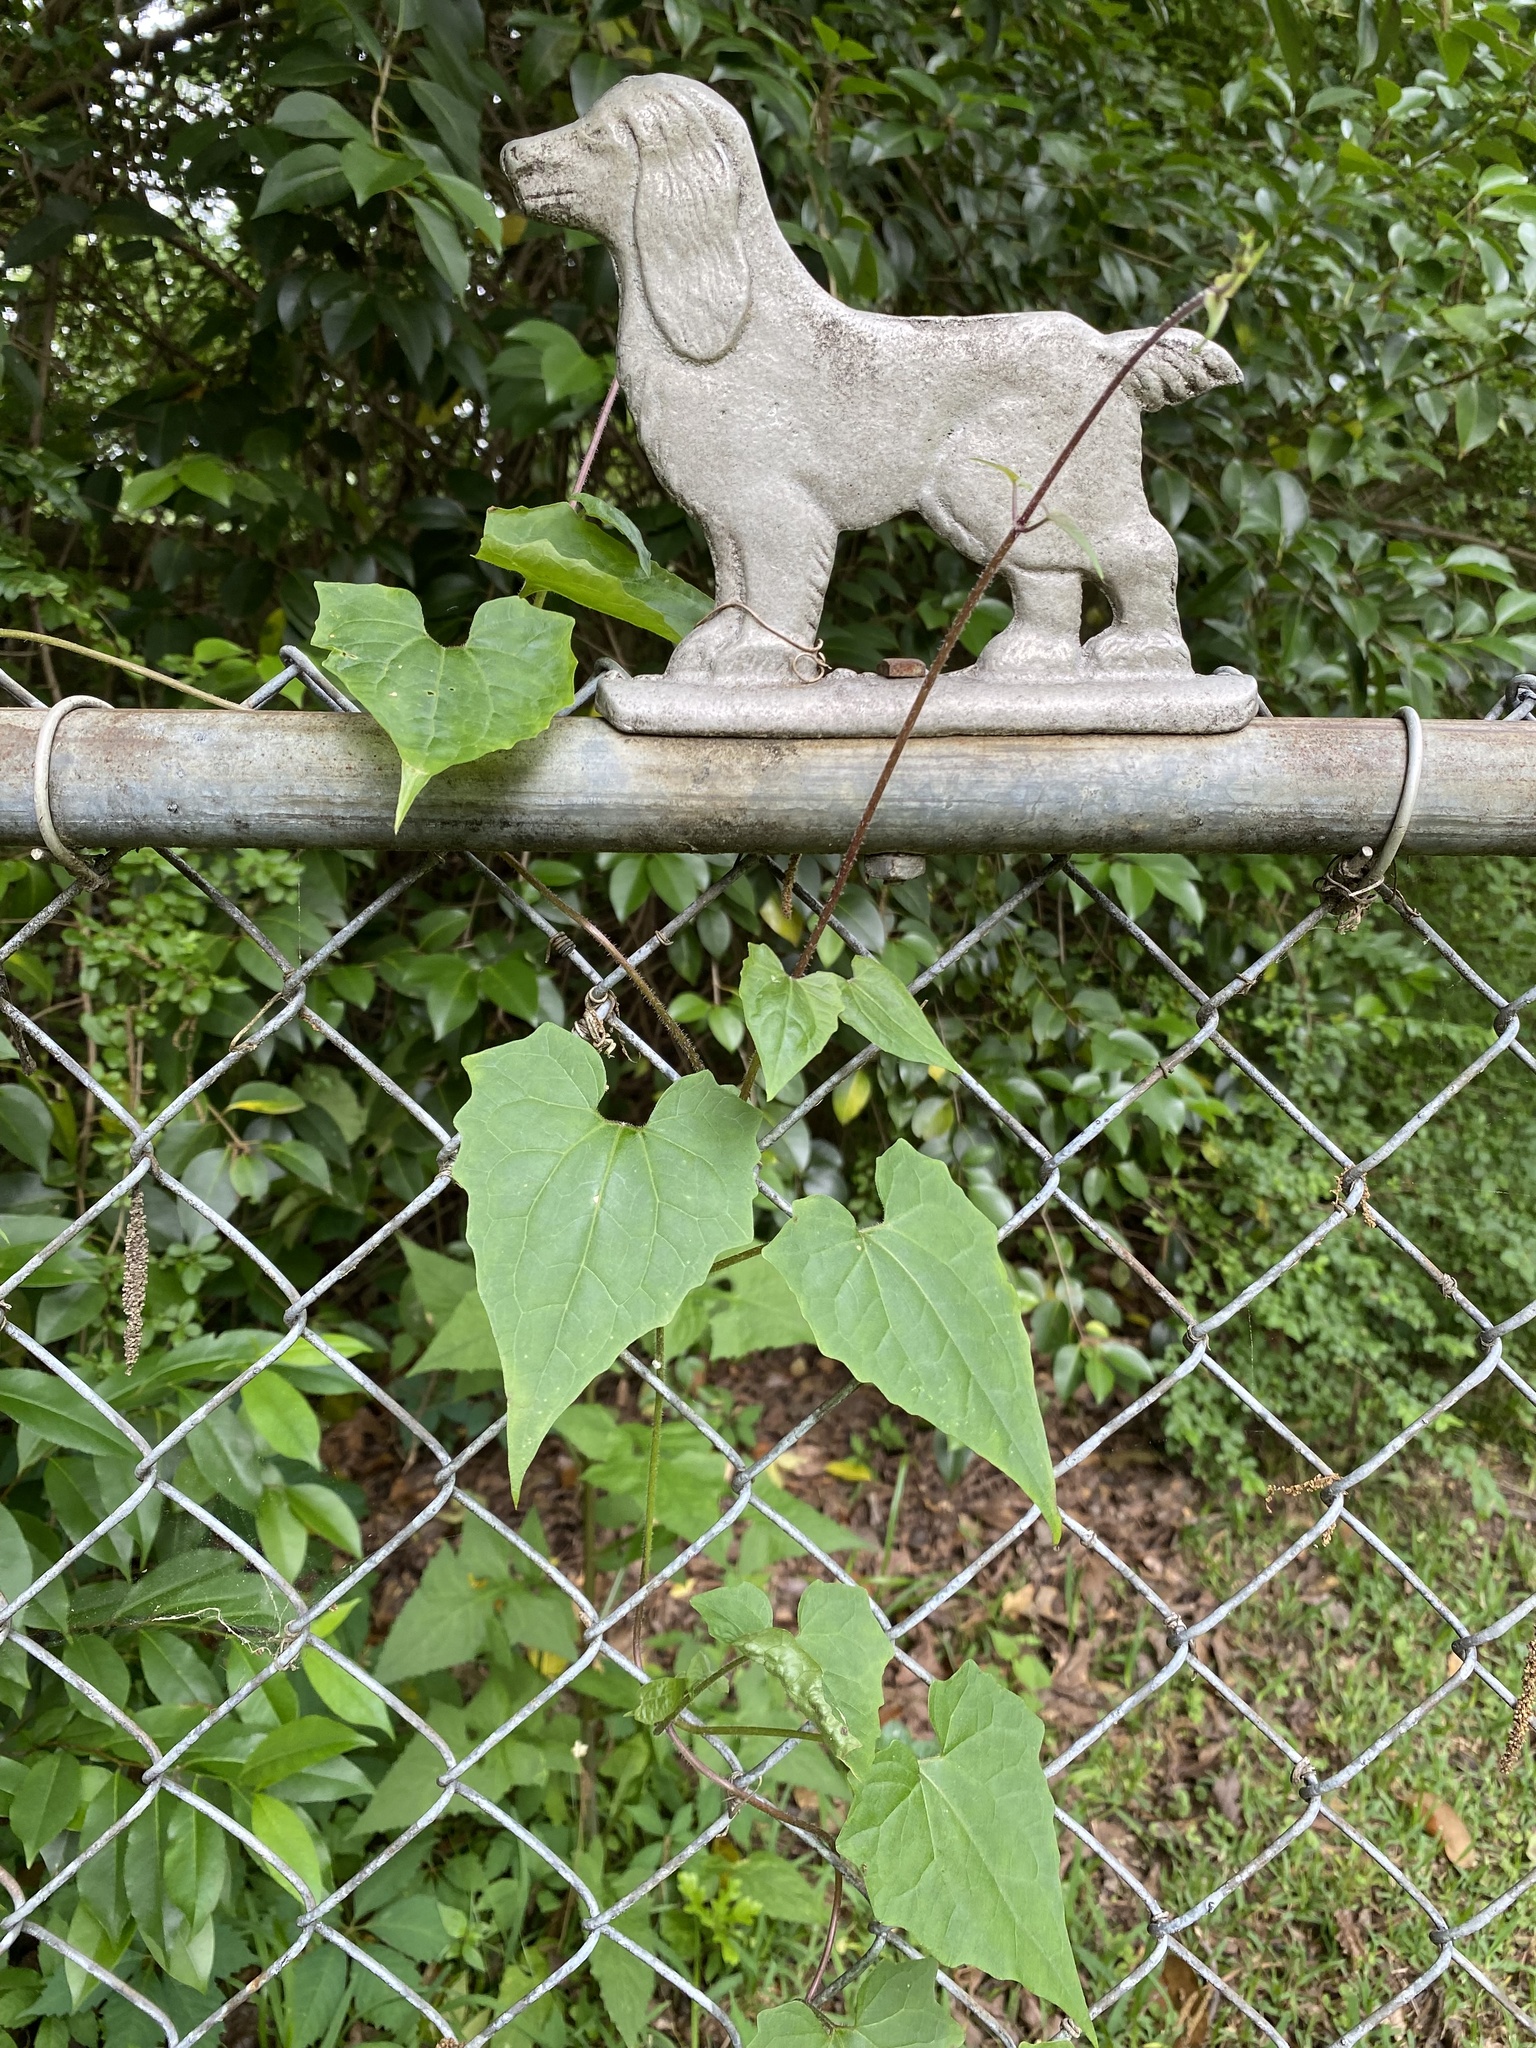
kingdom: Plantae
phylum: Tracheophyta
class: Magnoliopsida
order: Asterales
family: Asteraceae
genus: Mikania
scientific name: Mikania scandens
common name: Climbing hempvine
